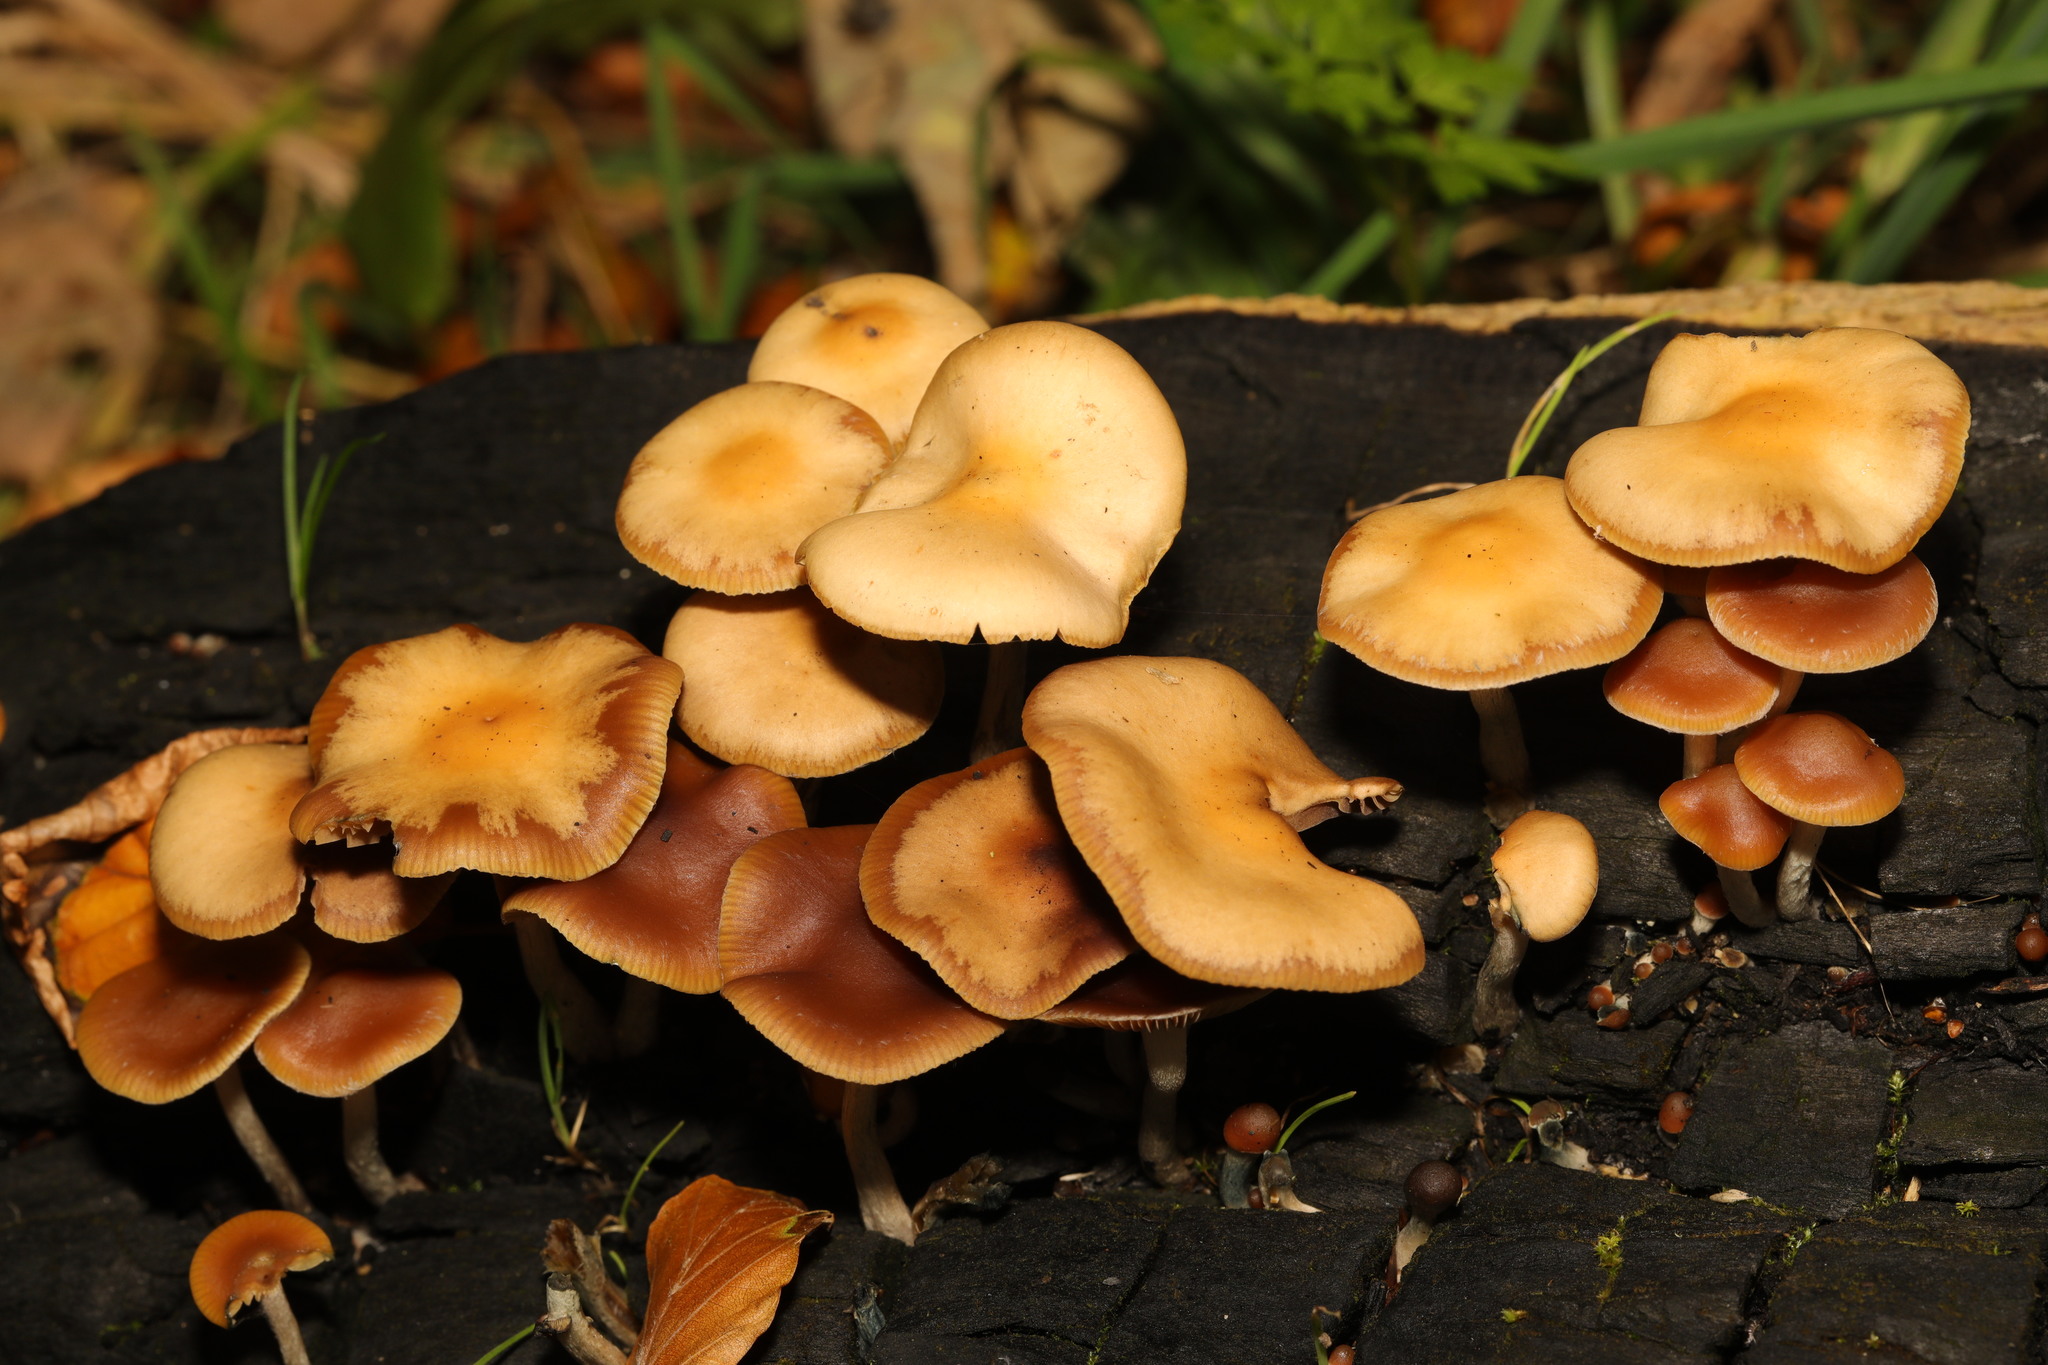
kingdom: Fungi
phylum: Basidiomycota
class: Agaricomycetes
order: Agaricales
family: Hymenogastraceae
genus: Psilocybe
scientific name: Psilocybe cyanescens
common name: Blueleg brownie
